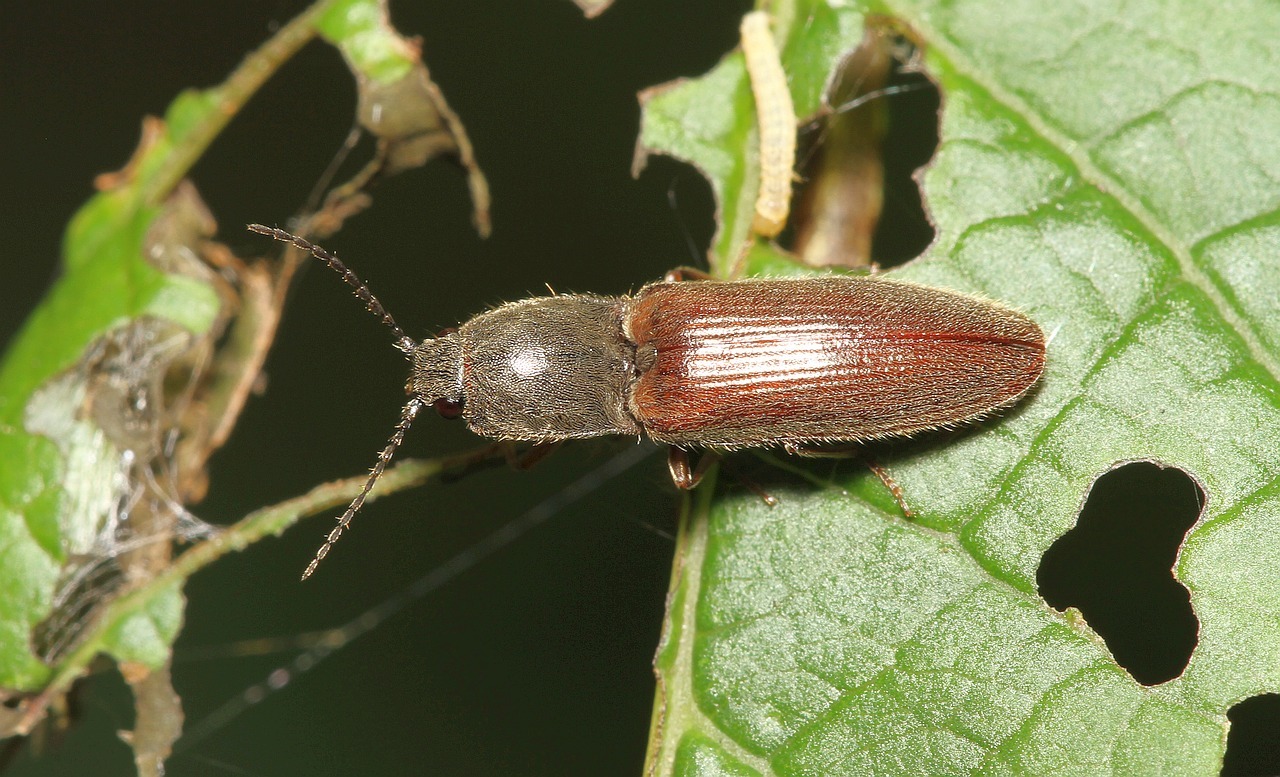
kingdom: Animalia
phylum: Arthropoda
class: Insecta
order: Coleoptera
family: Elateridae
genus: Athous
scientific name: Athous haemorrhoidalis
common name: Red-brown click beetle
